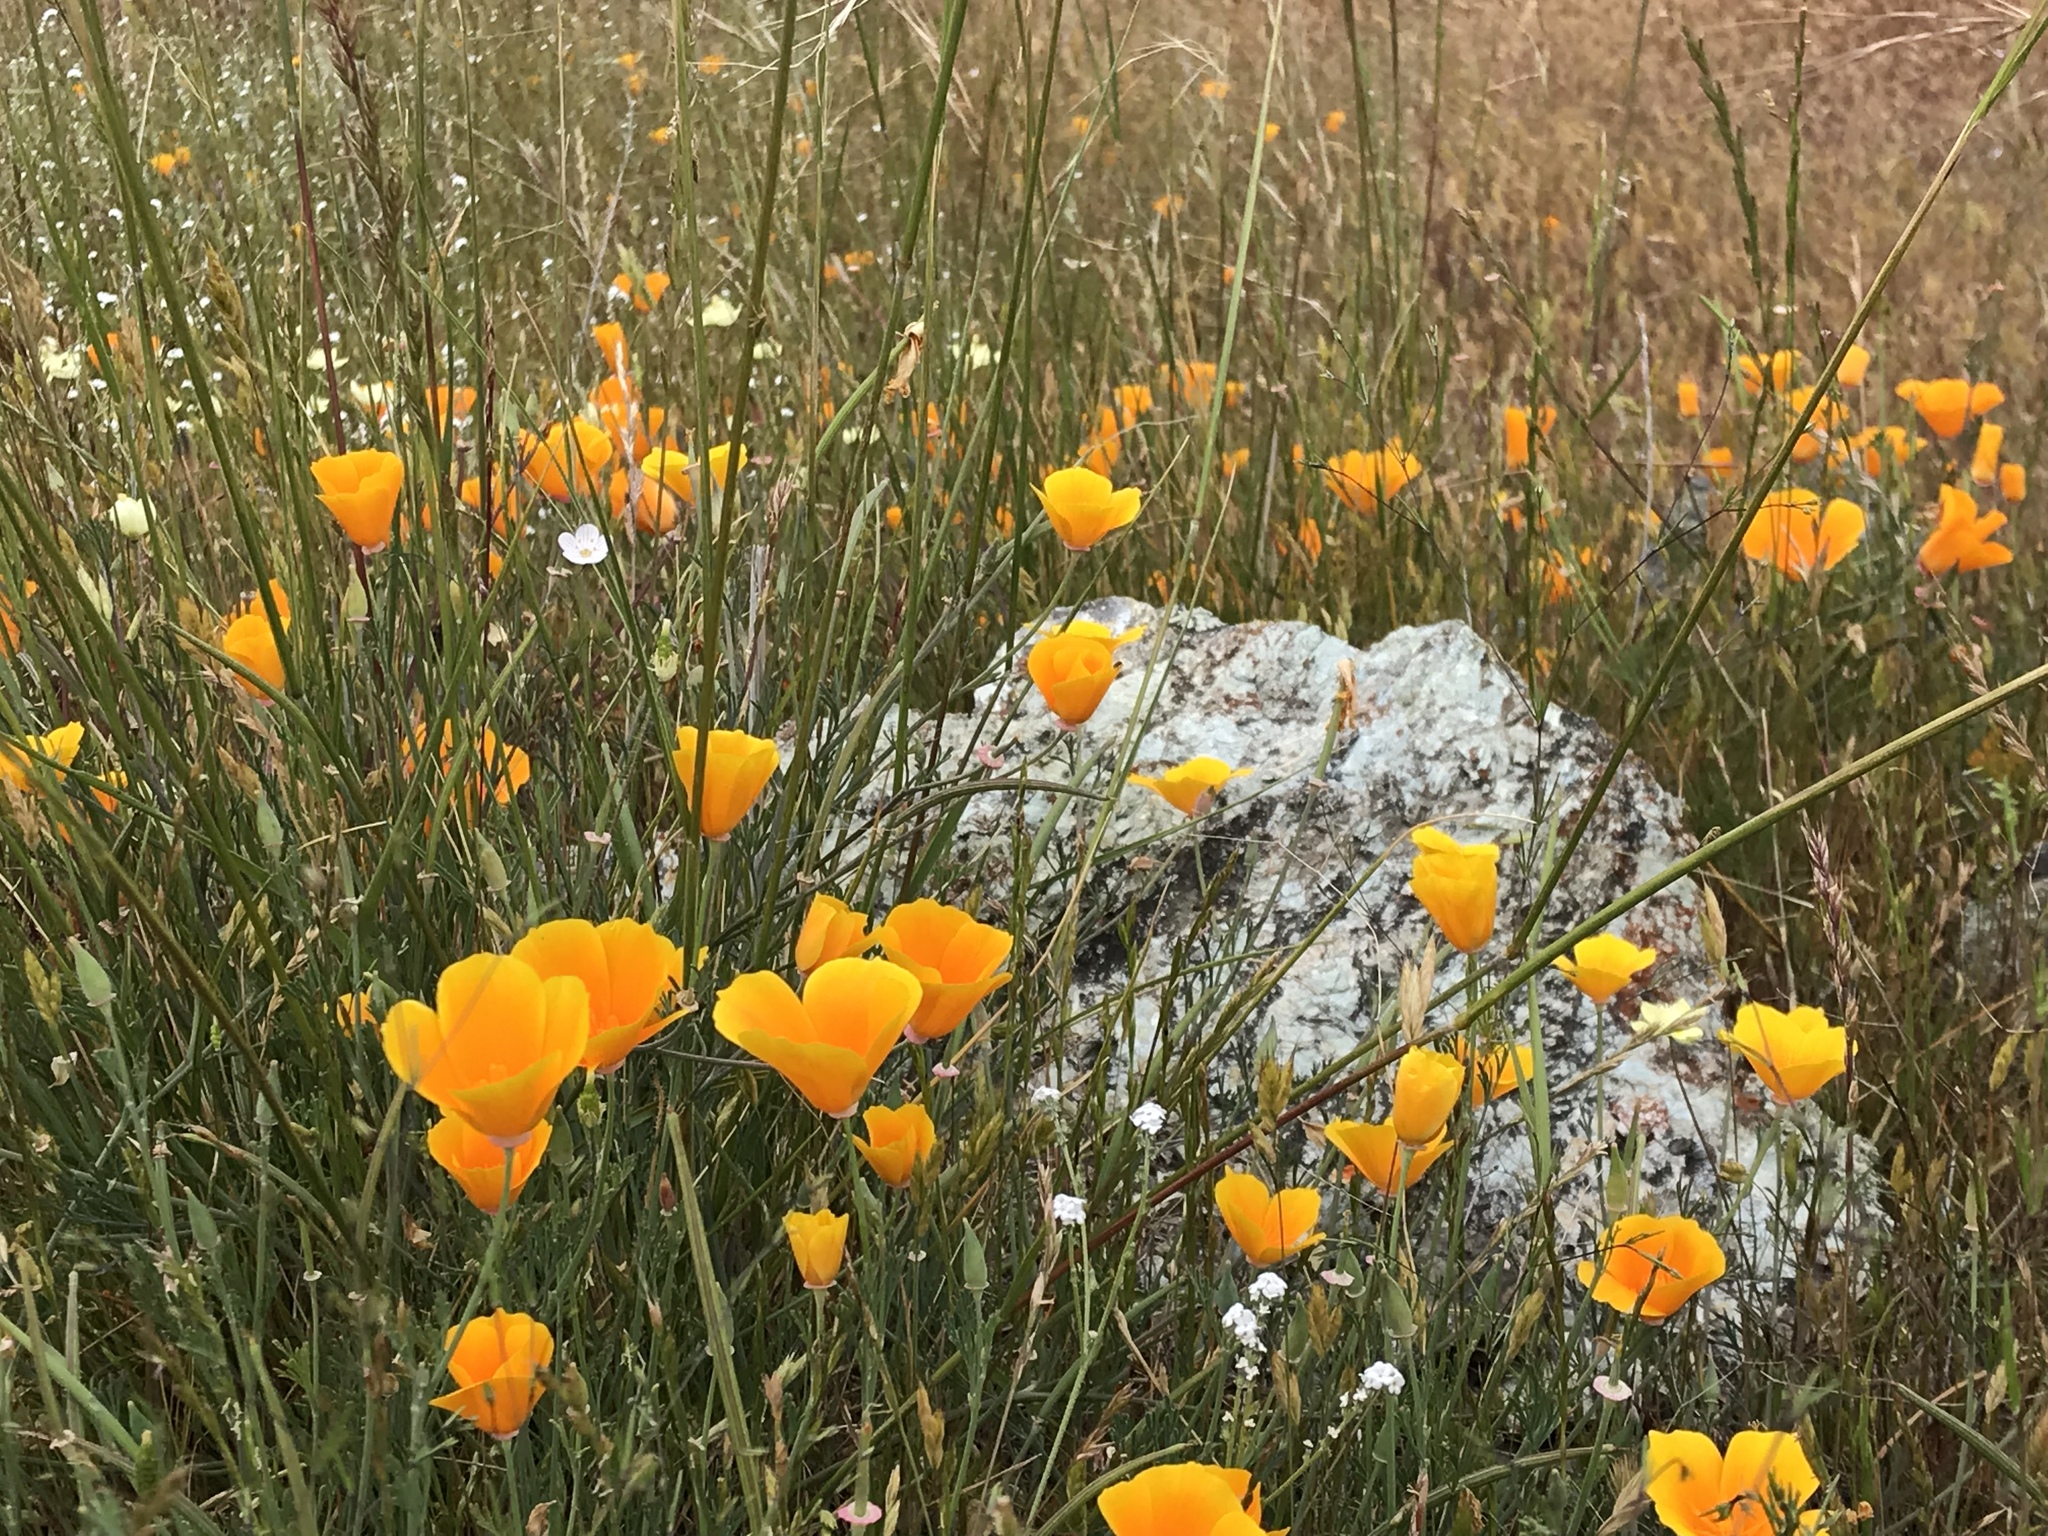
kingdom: Plantae
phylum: Tracheophyta
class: Magnoliopsida
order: Ranunculales
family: Papaveraceae
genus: Eschscholzia
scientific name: Eschscholzia californica
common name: California poppy
